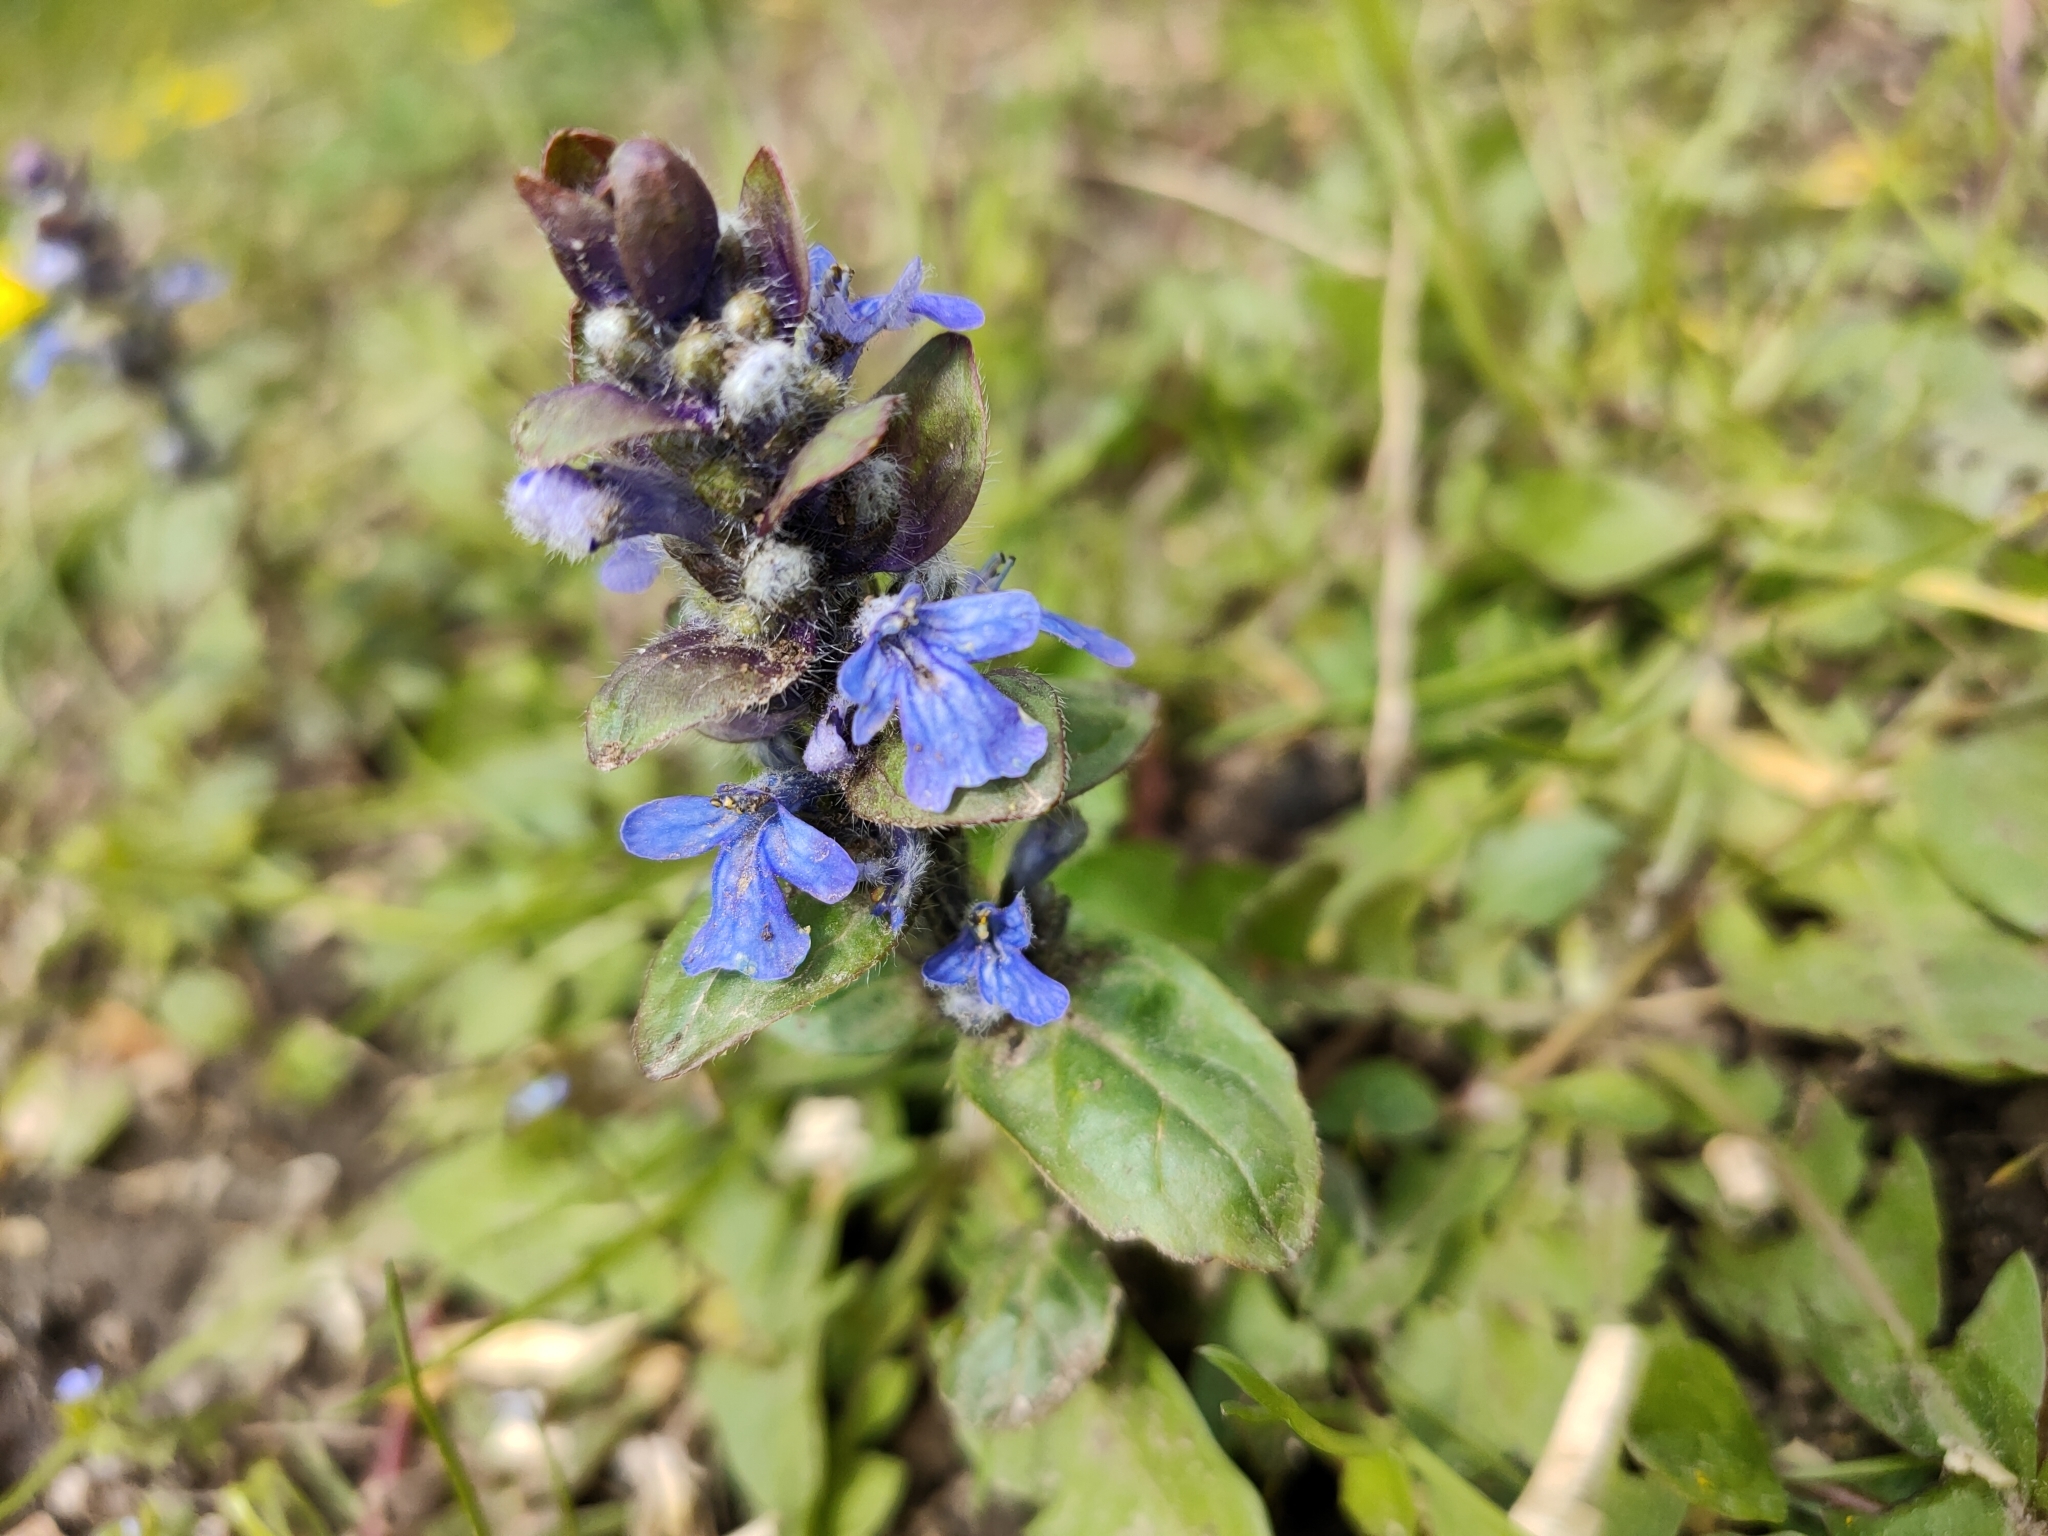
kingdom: Plantae
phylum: Tracheophyta
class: Magnoliopsida
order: Lamiales
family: Lamiaceae
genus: Ajuga
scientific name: Ajuga reptans
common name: Bugle
